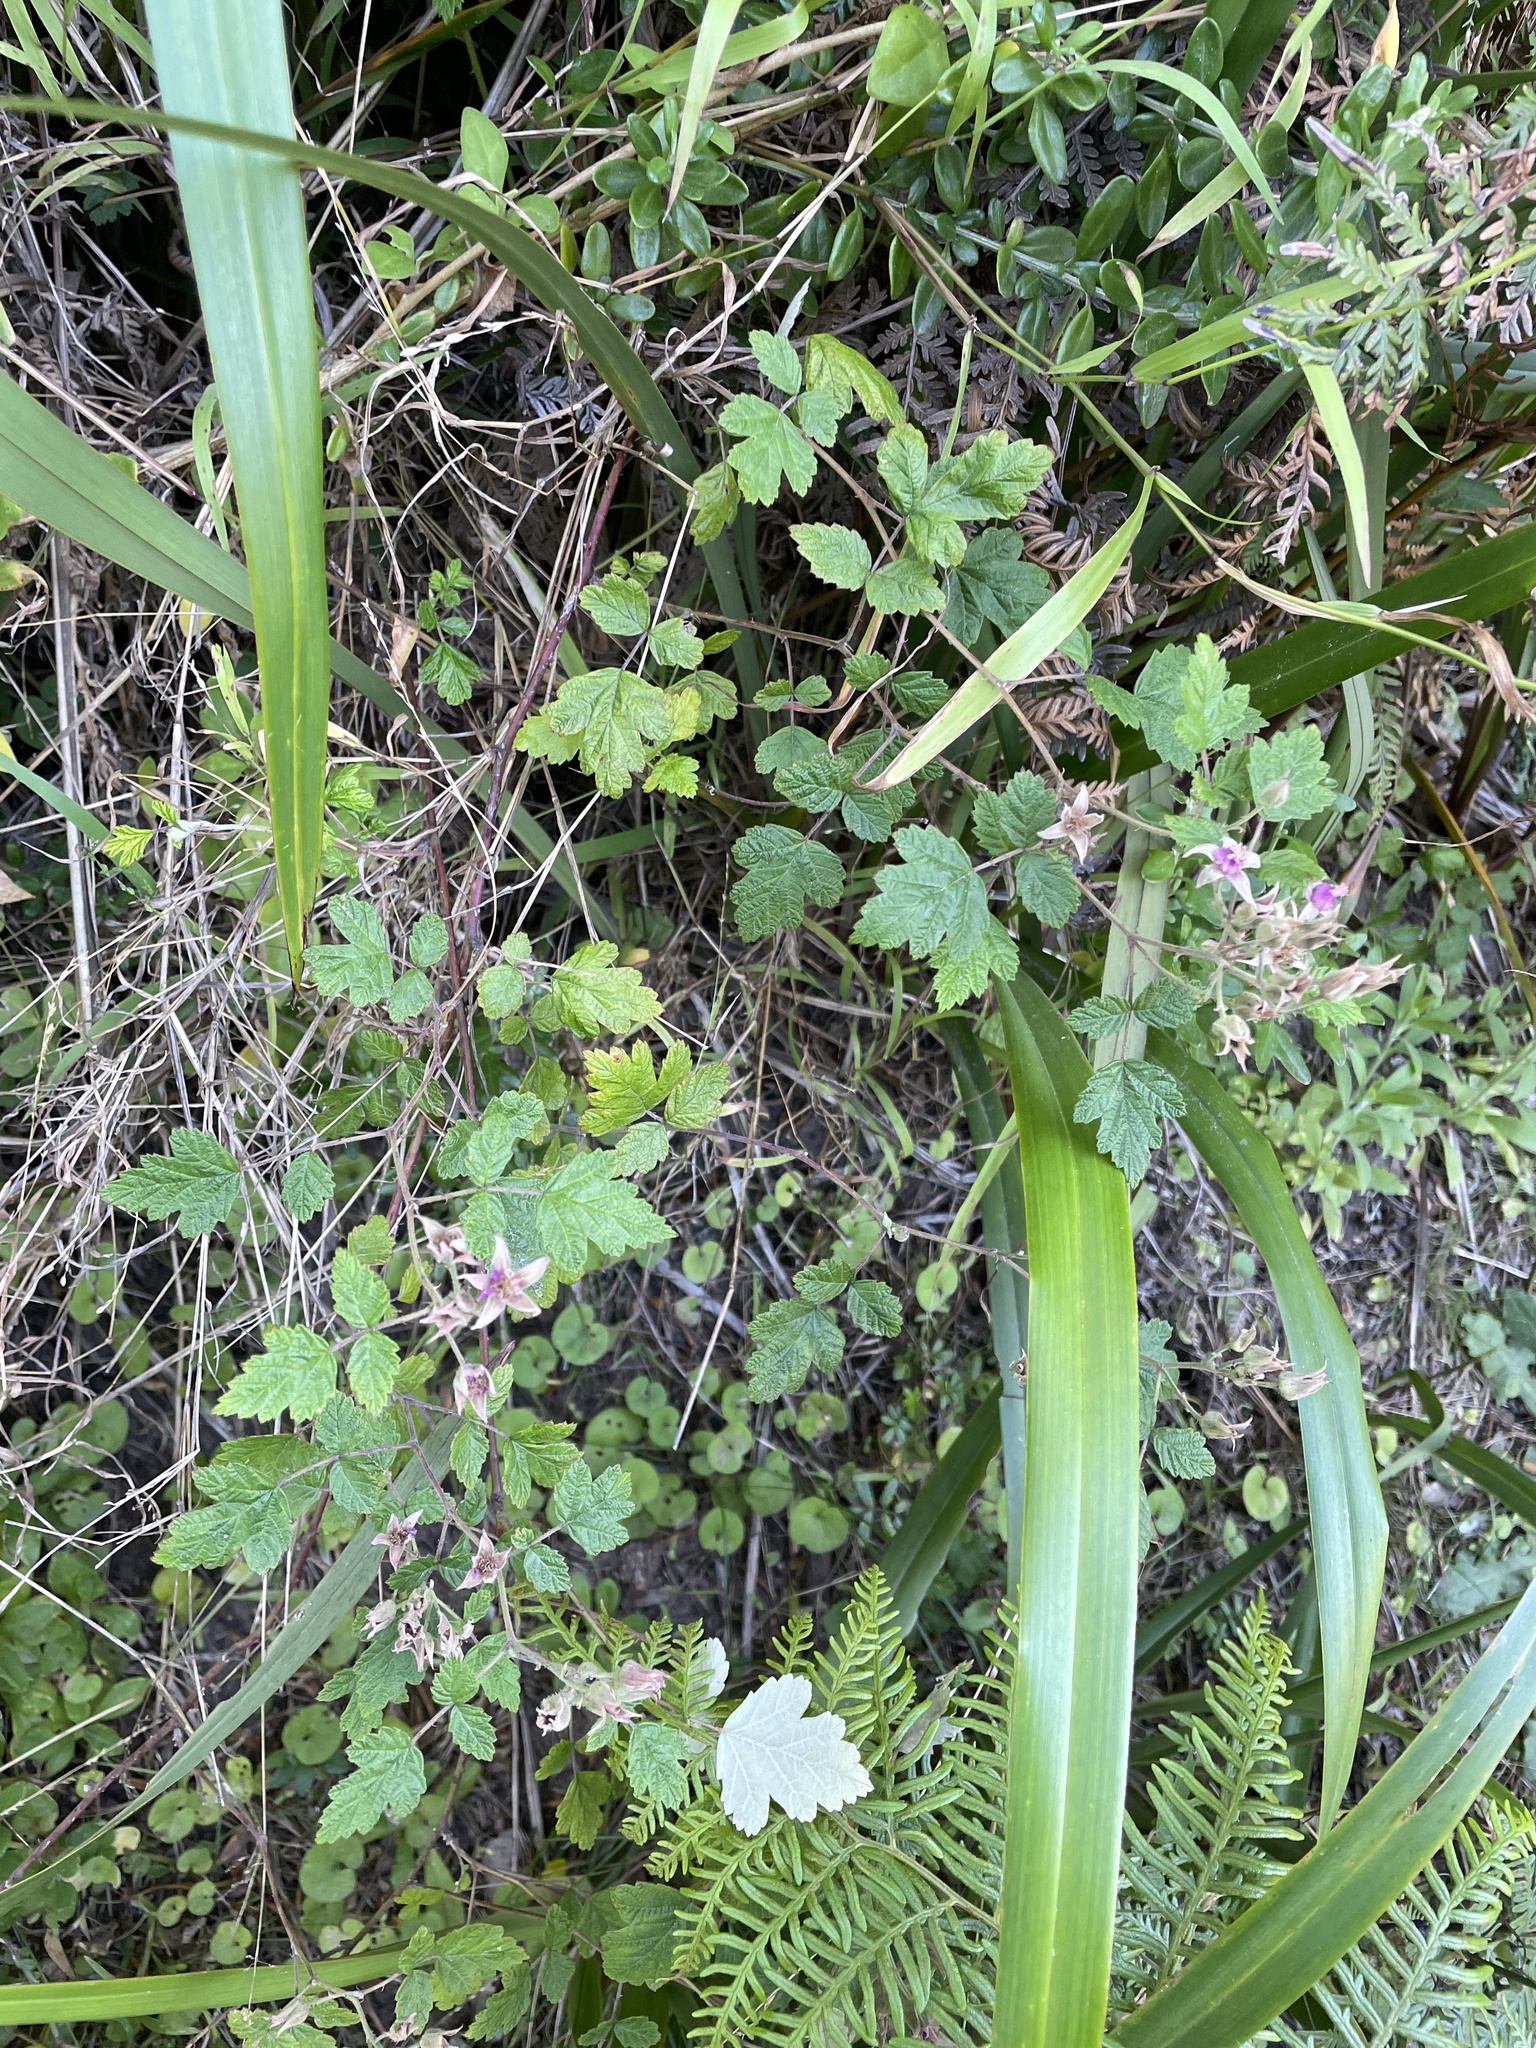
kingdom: Plantae
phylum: Tracheophyta
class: Magnoliopsida
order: Rosales
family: Rosaceae
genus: Rubus
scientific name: Rubus parvifolius
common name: Threeleaf blackberry
